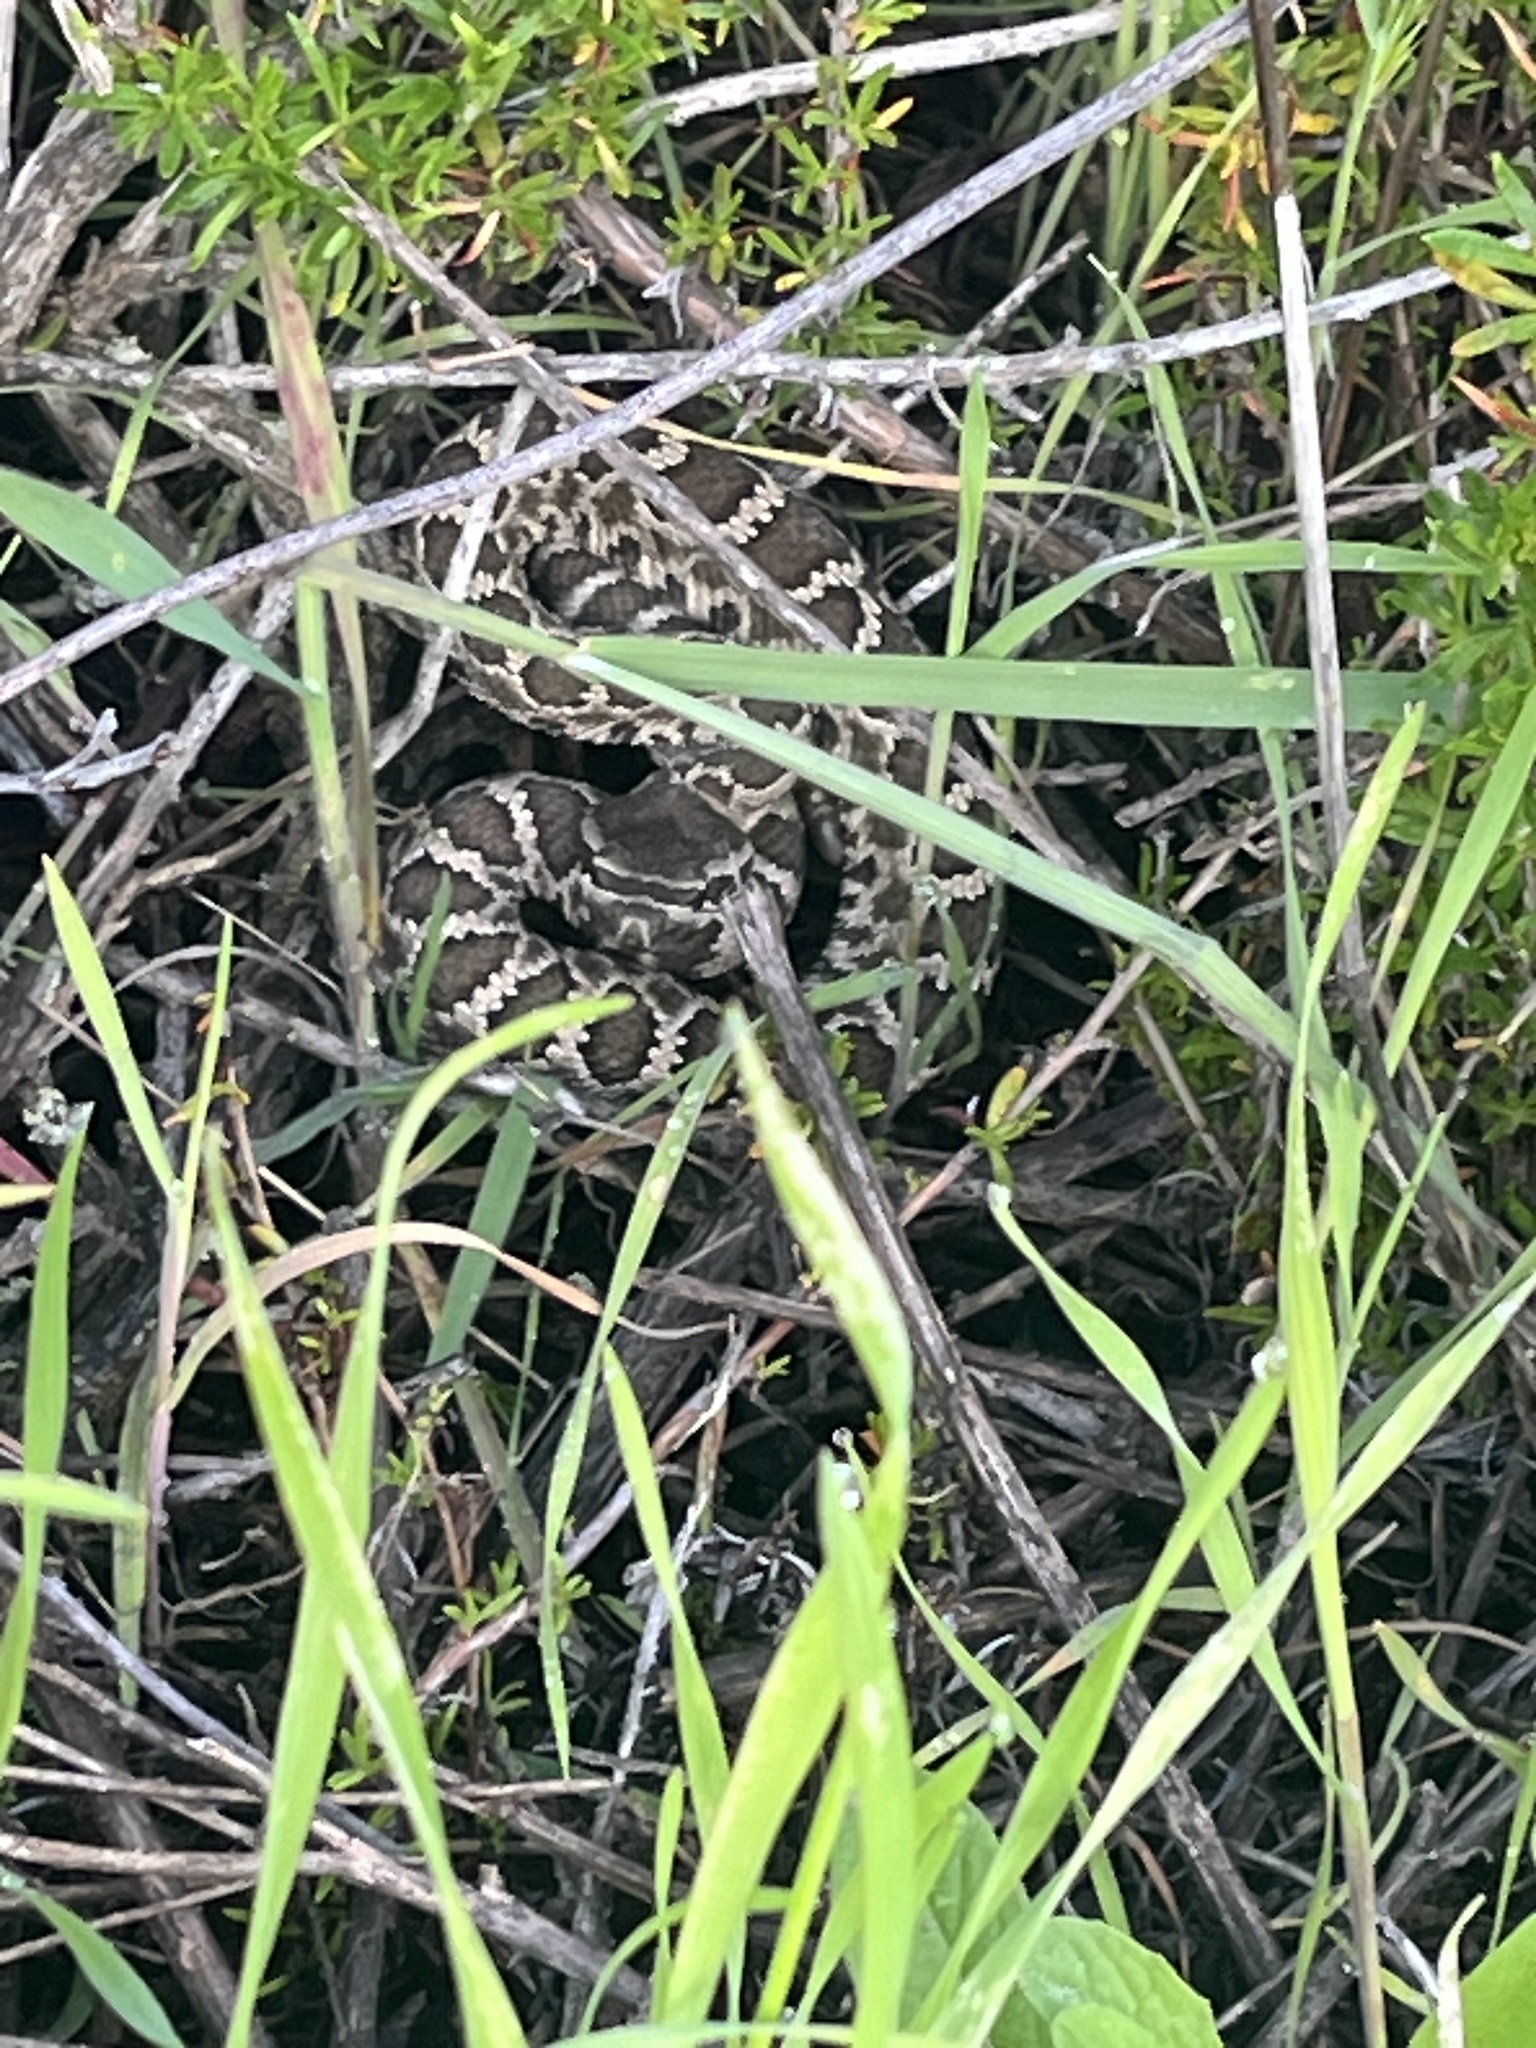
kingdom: Animalia
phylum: Chordata
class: Squamata
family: Viperidae
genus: Crotalus
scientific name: Crotalus oreganus
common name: Abyssus
